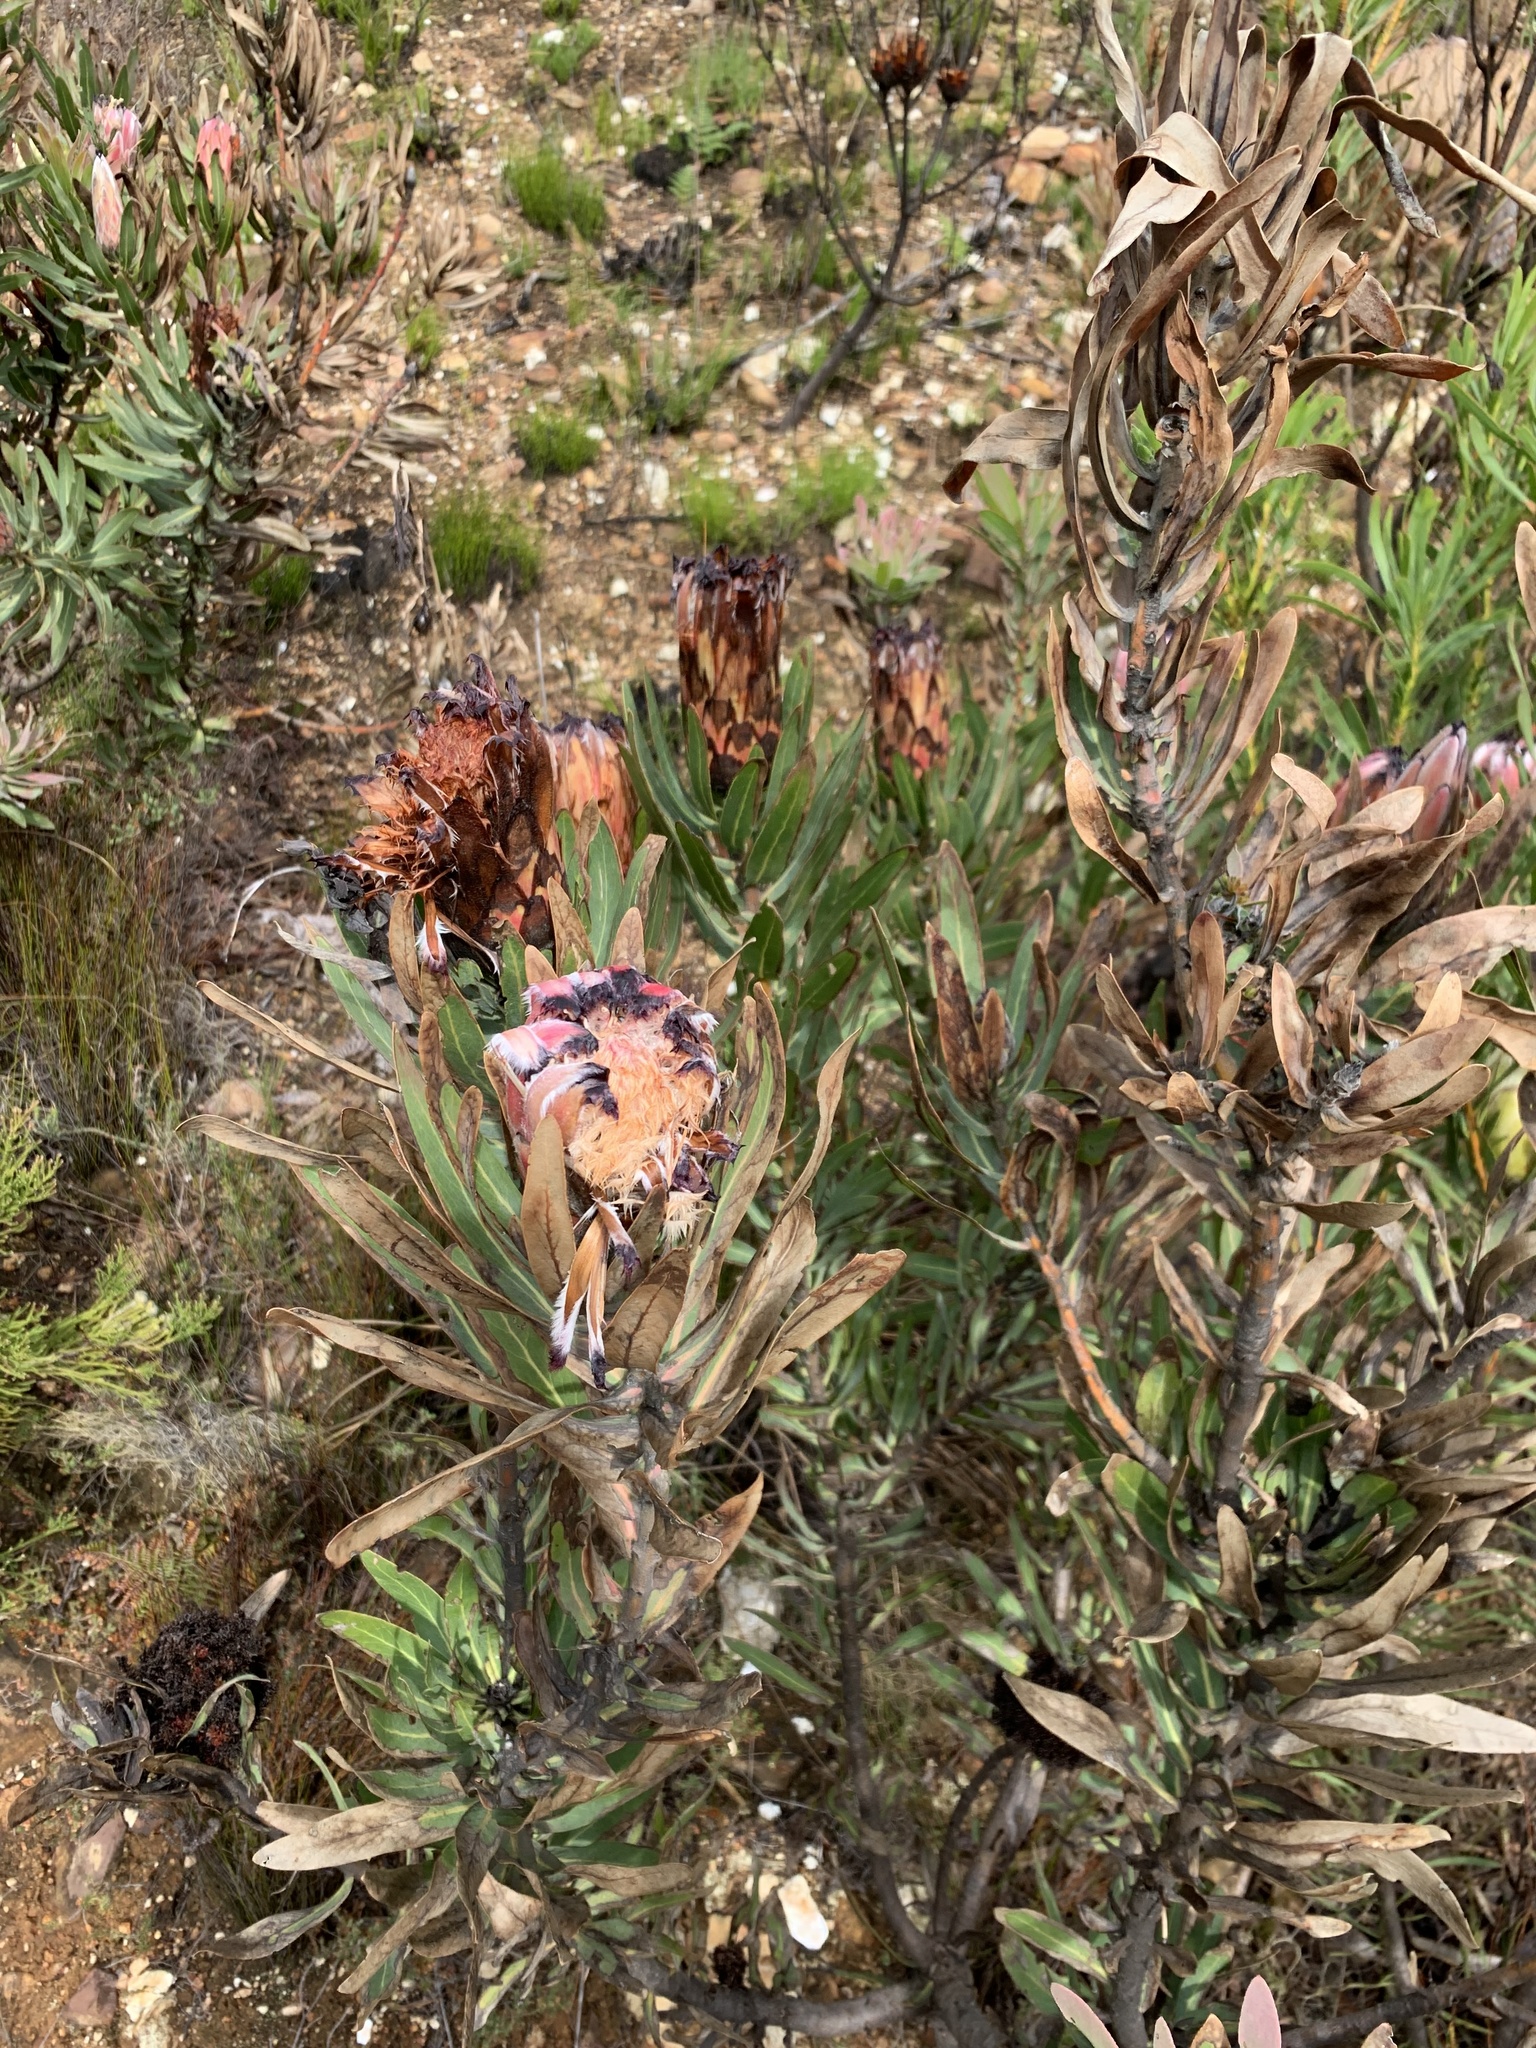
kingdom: Plantae
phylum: Tracheophyta
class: Magnoliopsida
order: Proteales
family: Proteaceae
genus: Protea
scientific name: Protea neriifolia
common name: Blue sugarbush
